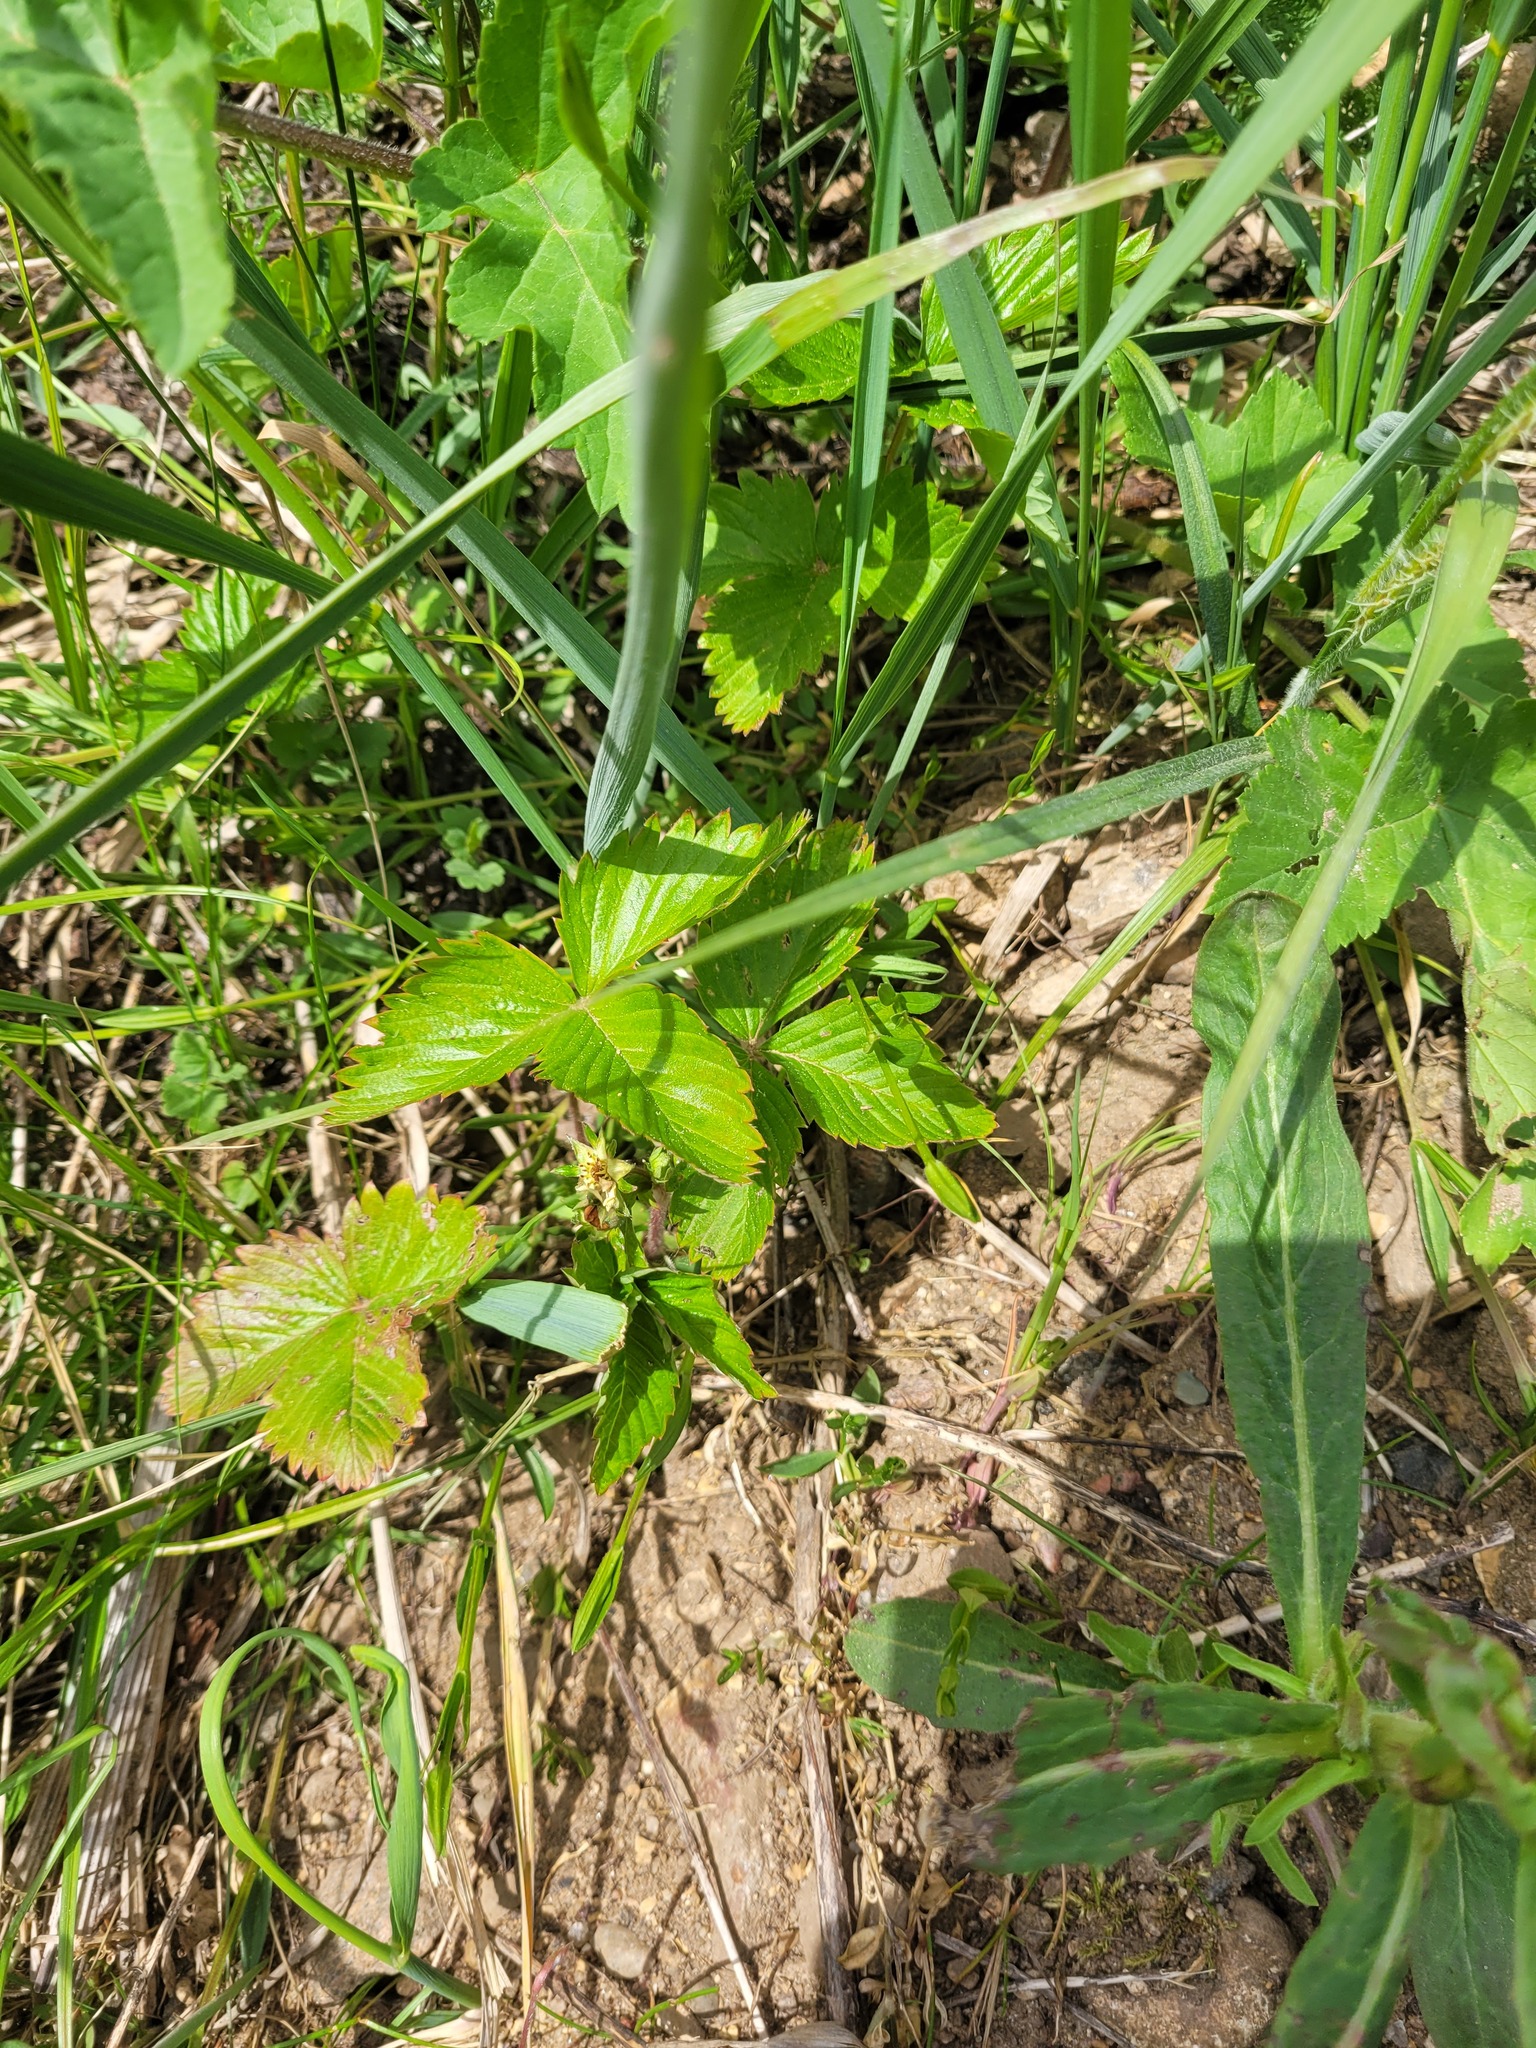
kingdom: Plantae
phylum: Tracheophyta
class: Magnoliopsida
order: Rosales
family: Rosaceae
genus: Fragaria
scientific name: Fragaria vesca
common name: Wild strawberry
